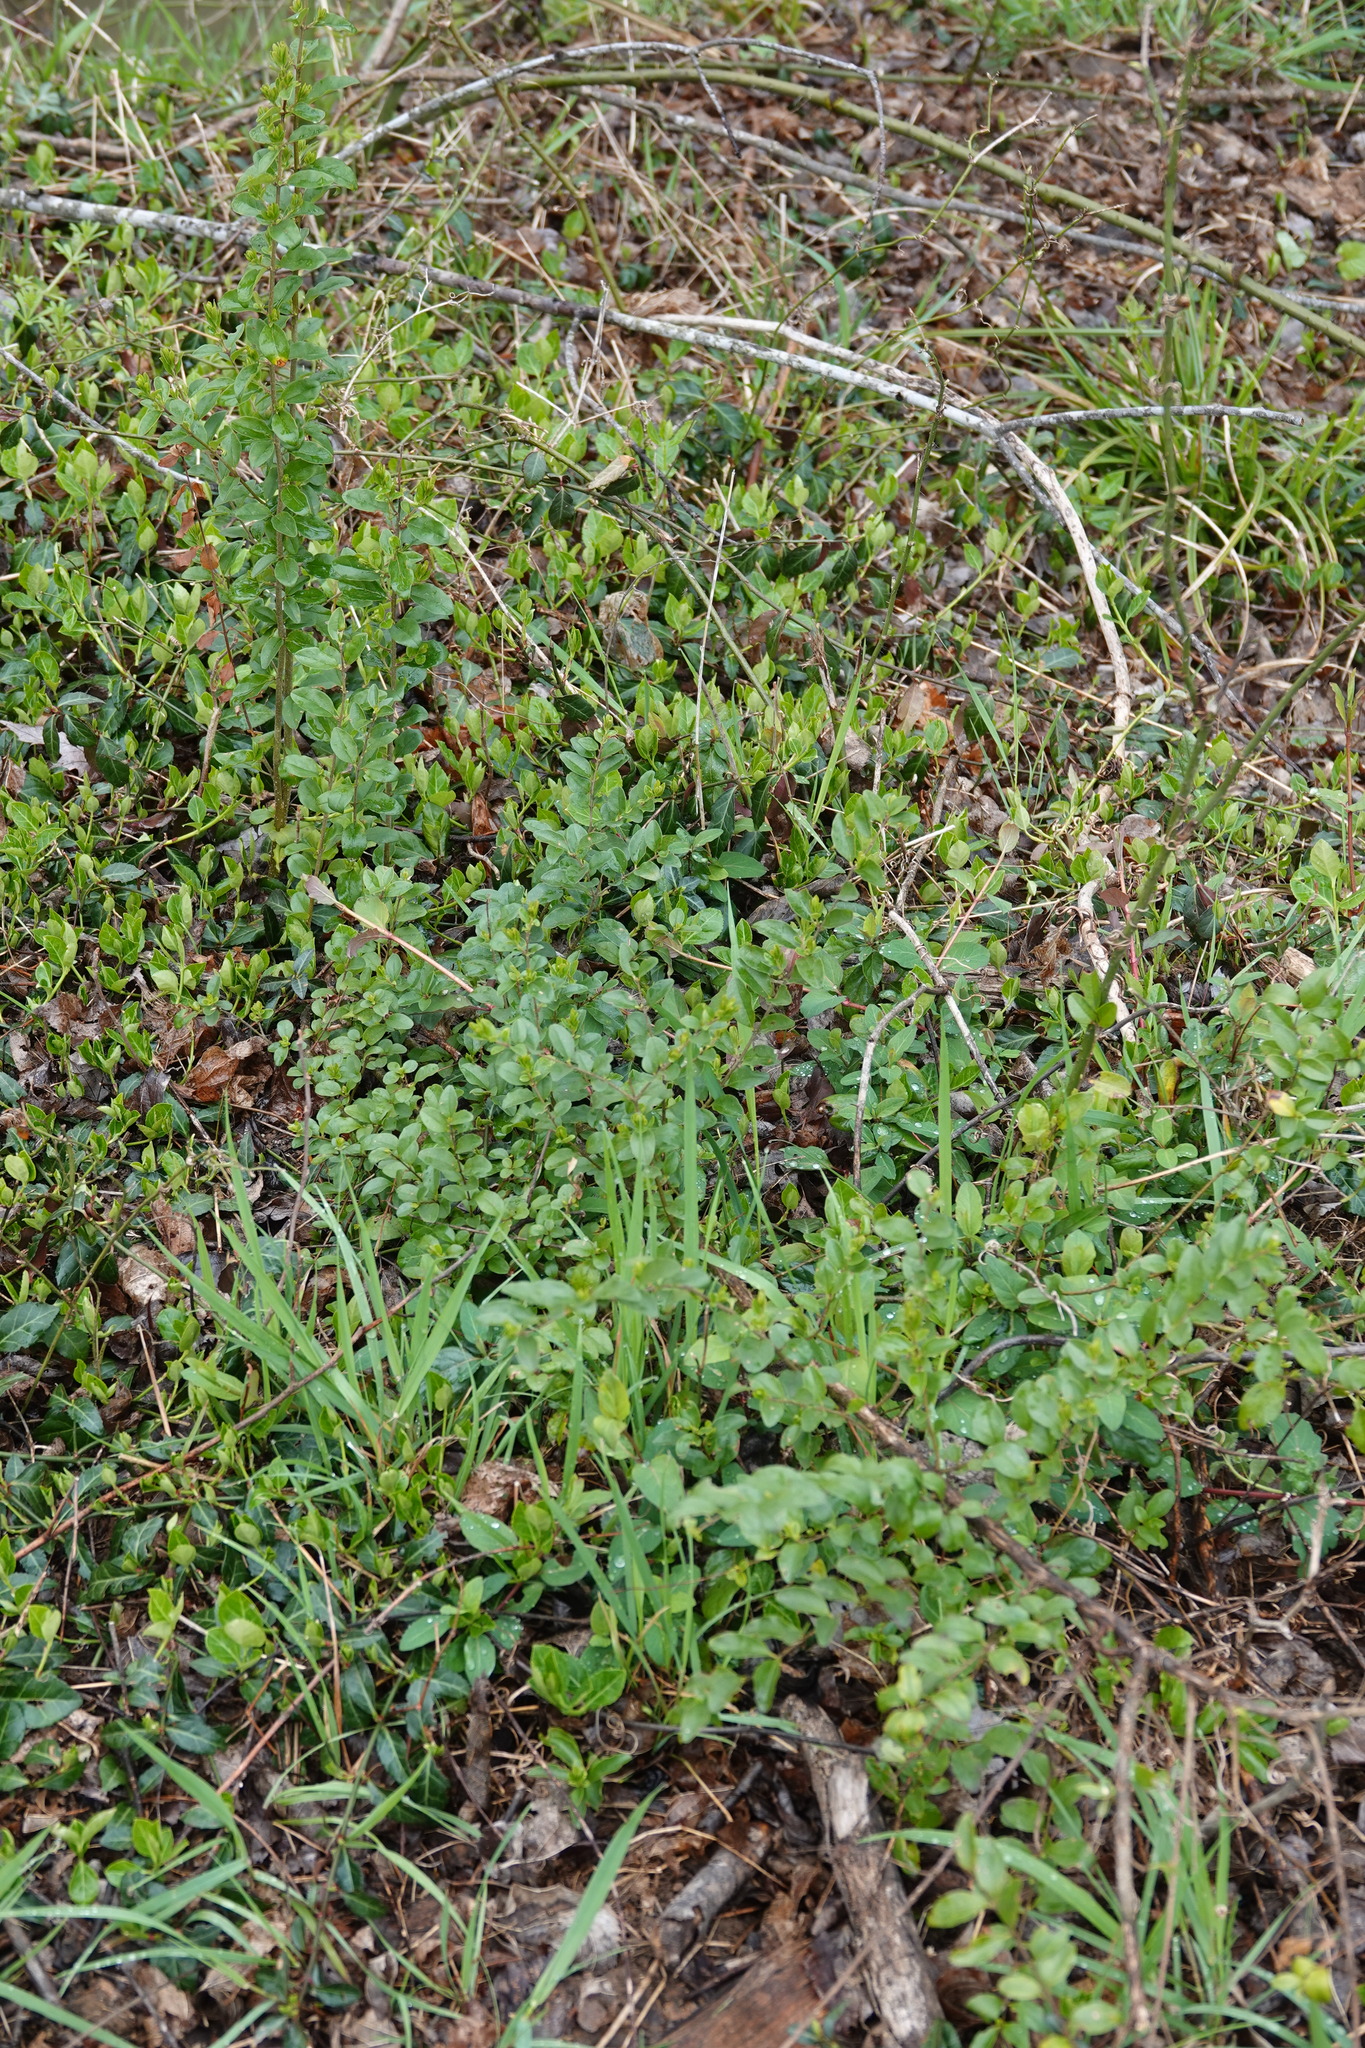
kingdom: Plantae
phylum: Tracheophyta
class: Magnoliopsida
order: Lamiales
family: Oleaceae
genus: Ligustrum
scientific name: Ligustrum sinense
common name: Chinese privet
